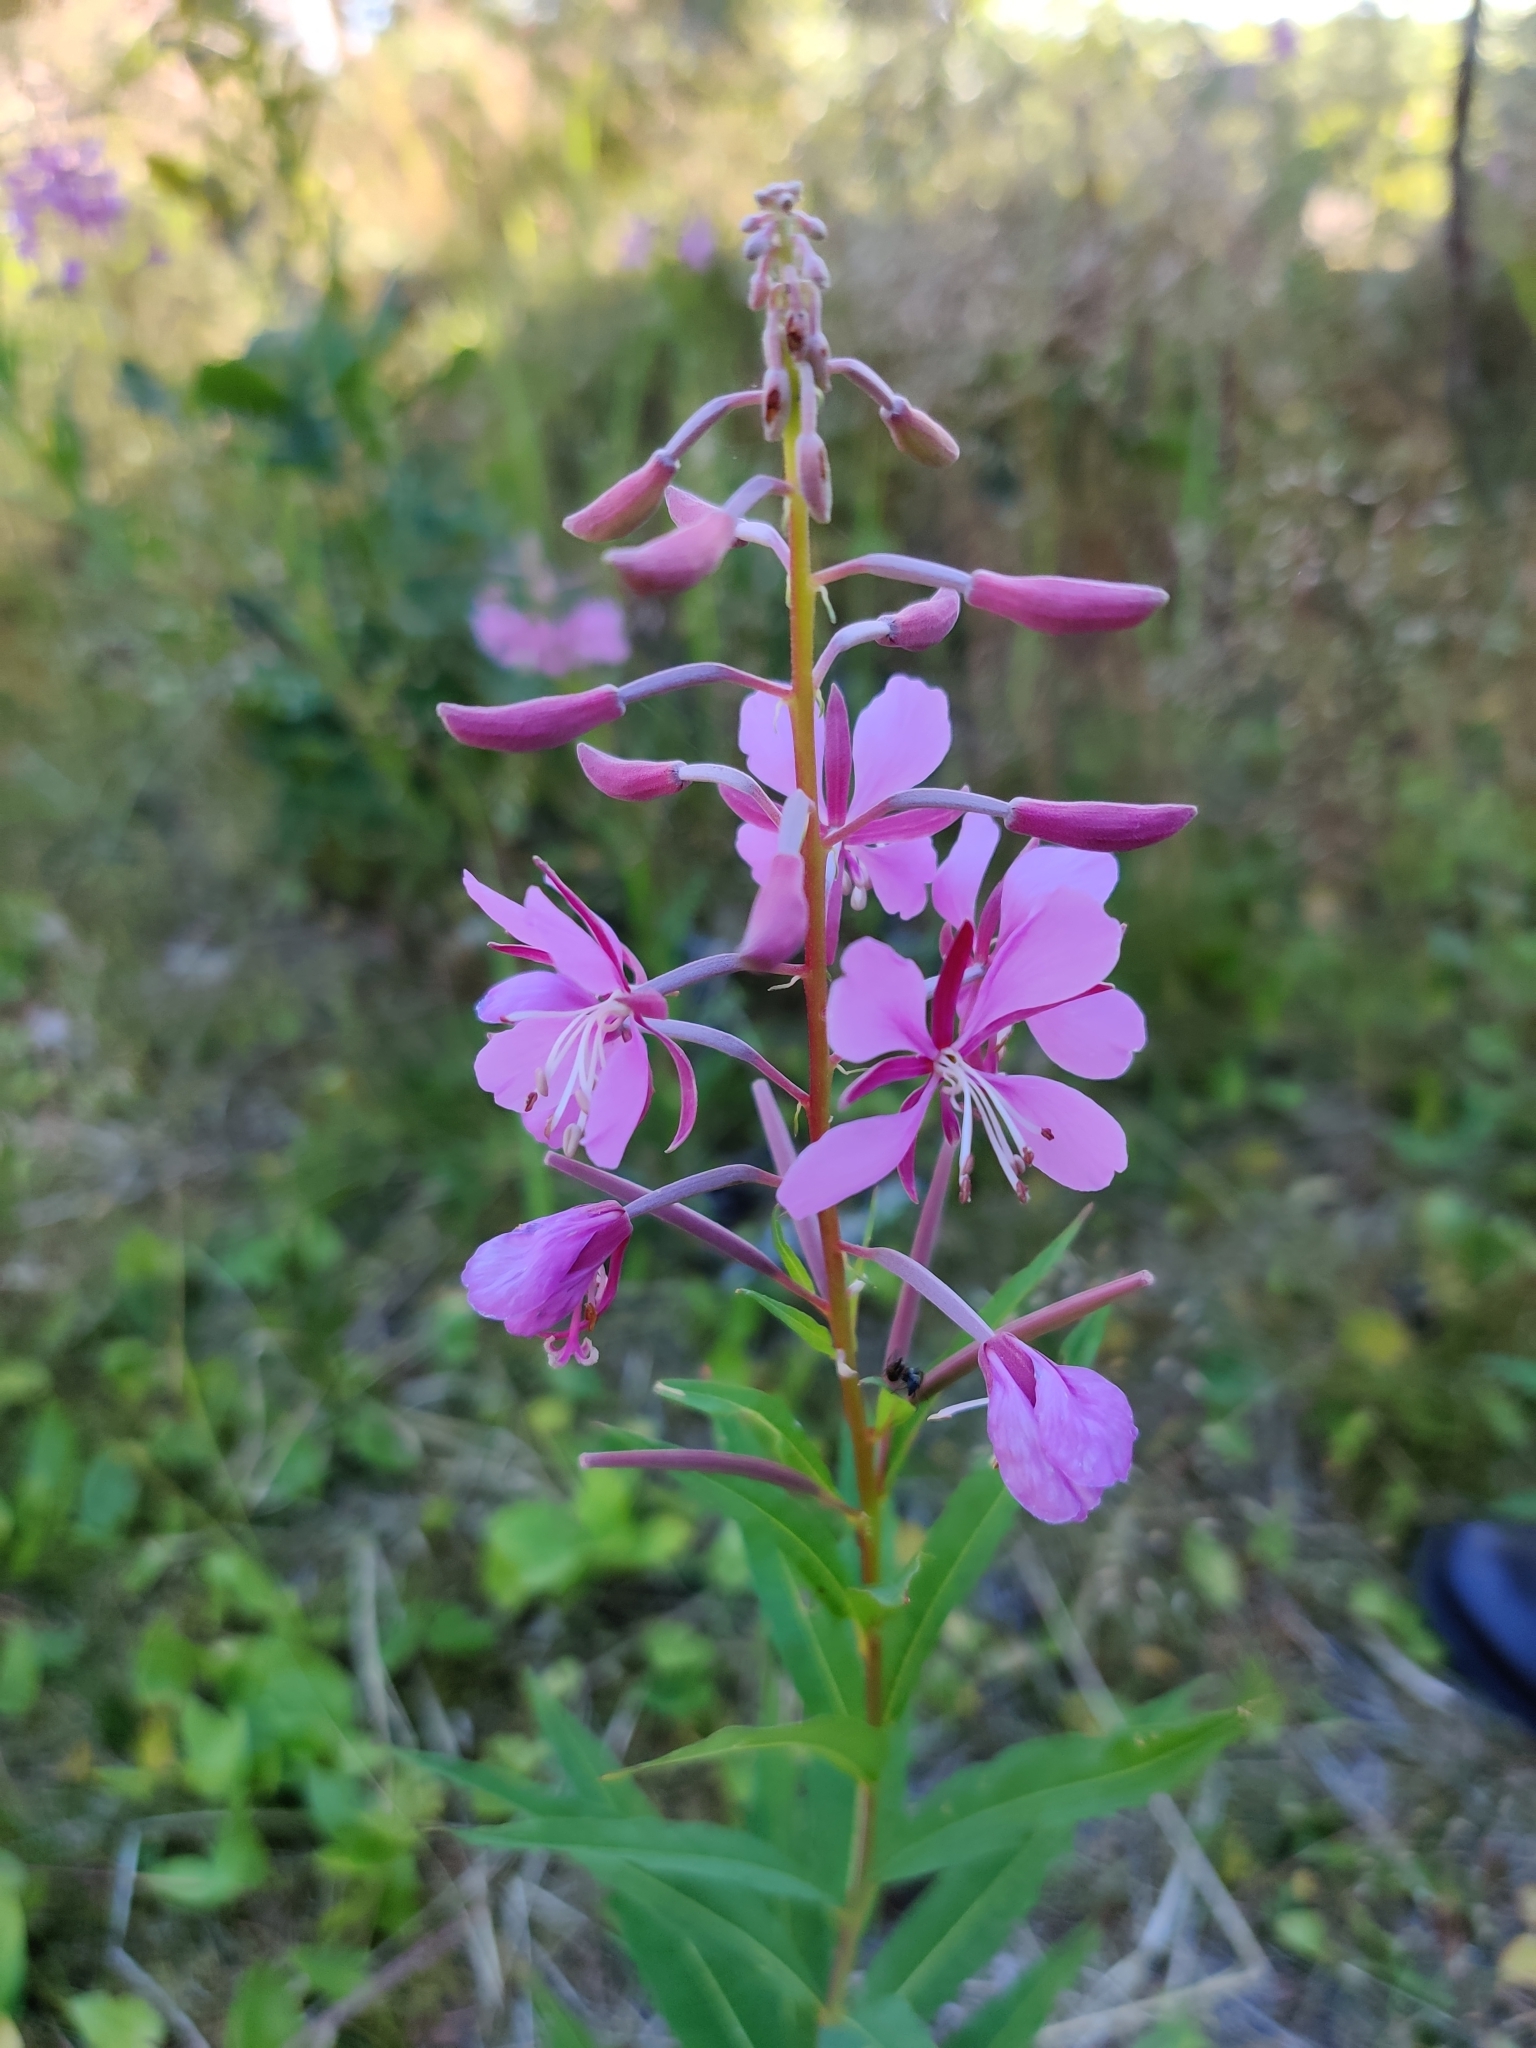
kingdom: Plantae
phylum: Tracheophyta
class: Magnoliopsida
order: Myrtales
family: Onagraceae
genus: Chamaenerion
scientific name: Chamaenerion angustifolium
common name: Fireweed
